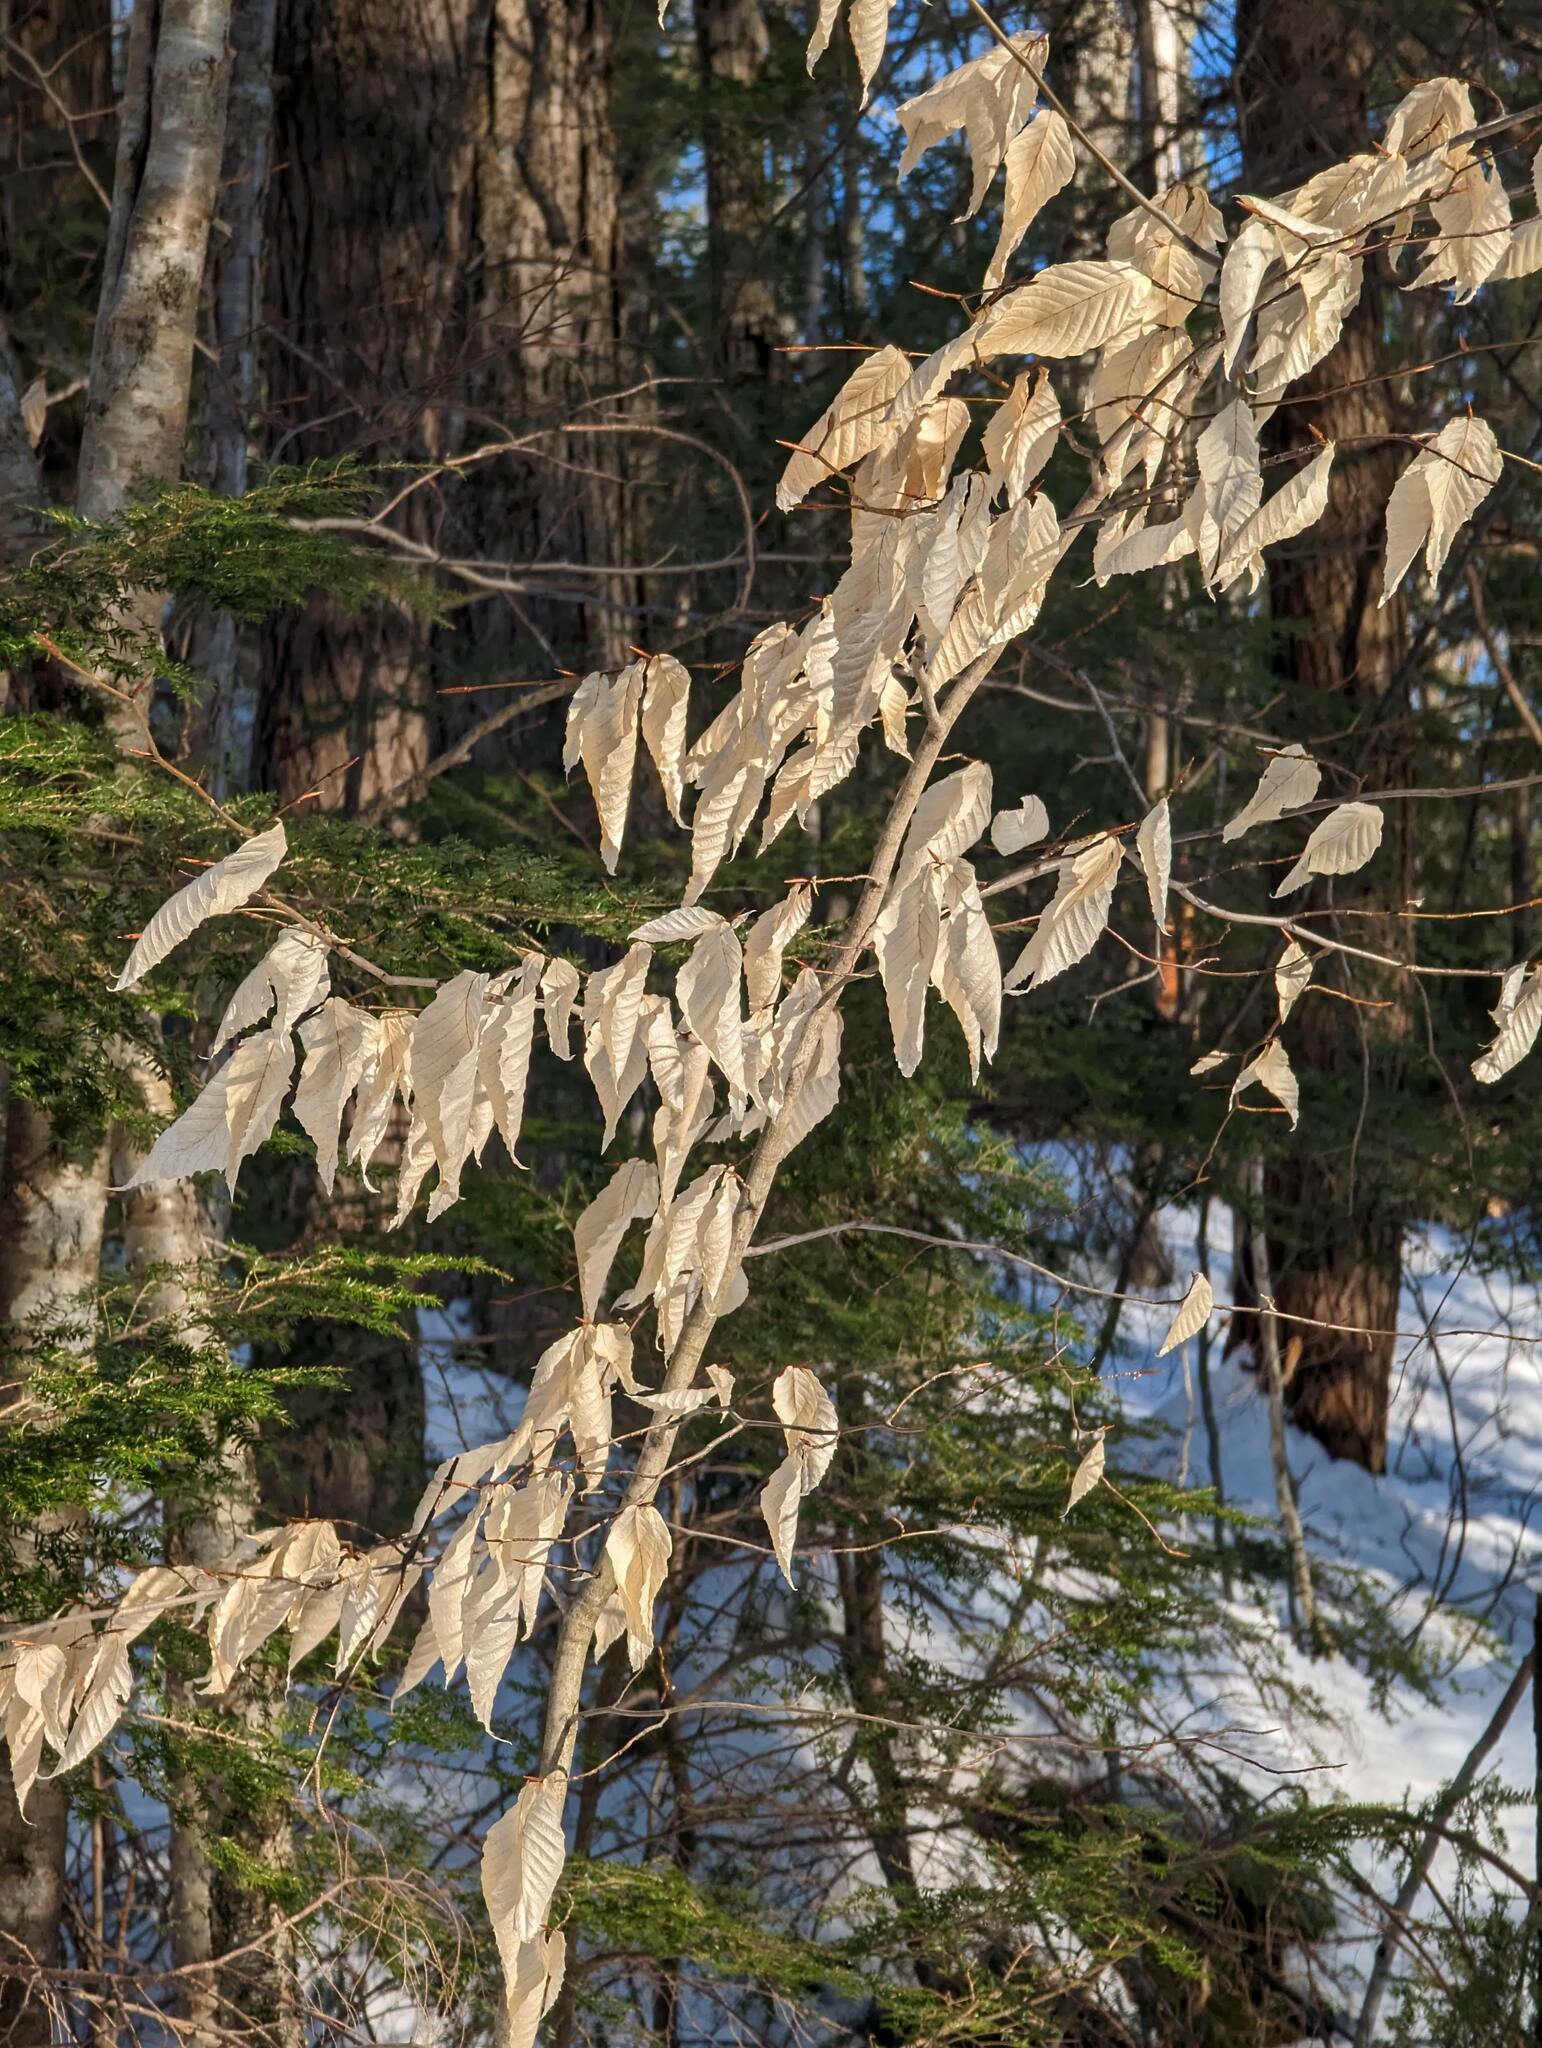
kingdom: Plantae
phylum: Tracheophyta
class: Magnoliopsida
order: Fagales
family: Fagaceae
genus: Fagus
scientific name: Fagus grandifolia
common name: American beech
